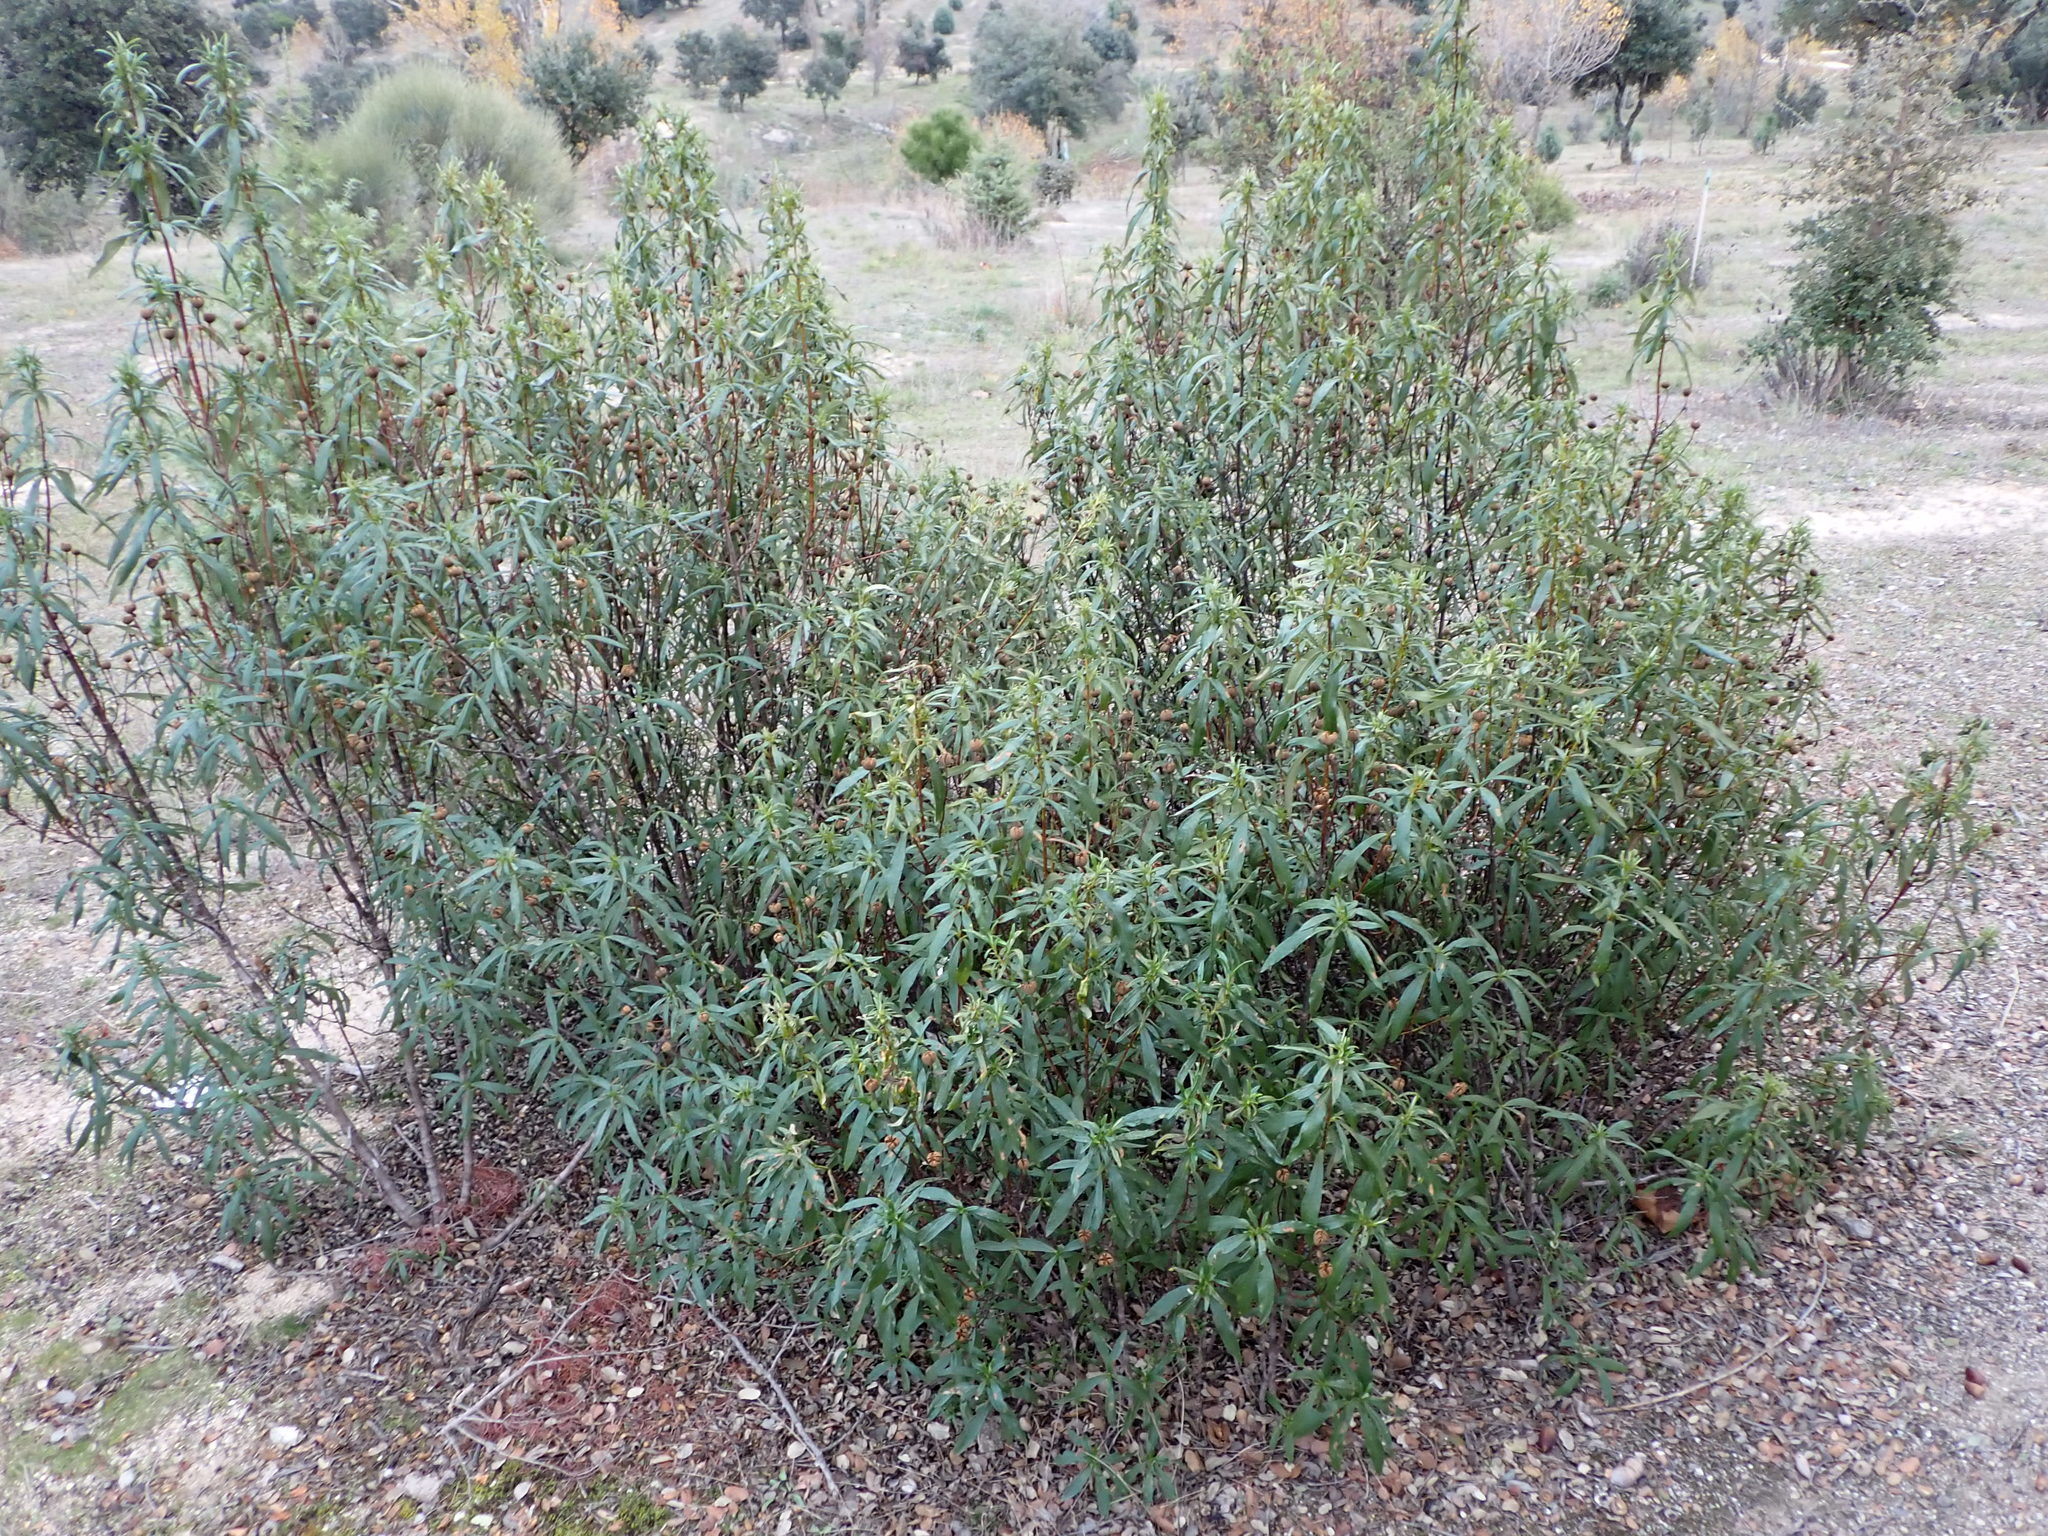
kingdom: Plantae
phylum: Tracheophyta
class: Magnoliopsida
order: Malvales
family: Cistaceae
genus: Cistus
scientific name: Cistus ladanifer
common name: Common gum cistus
